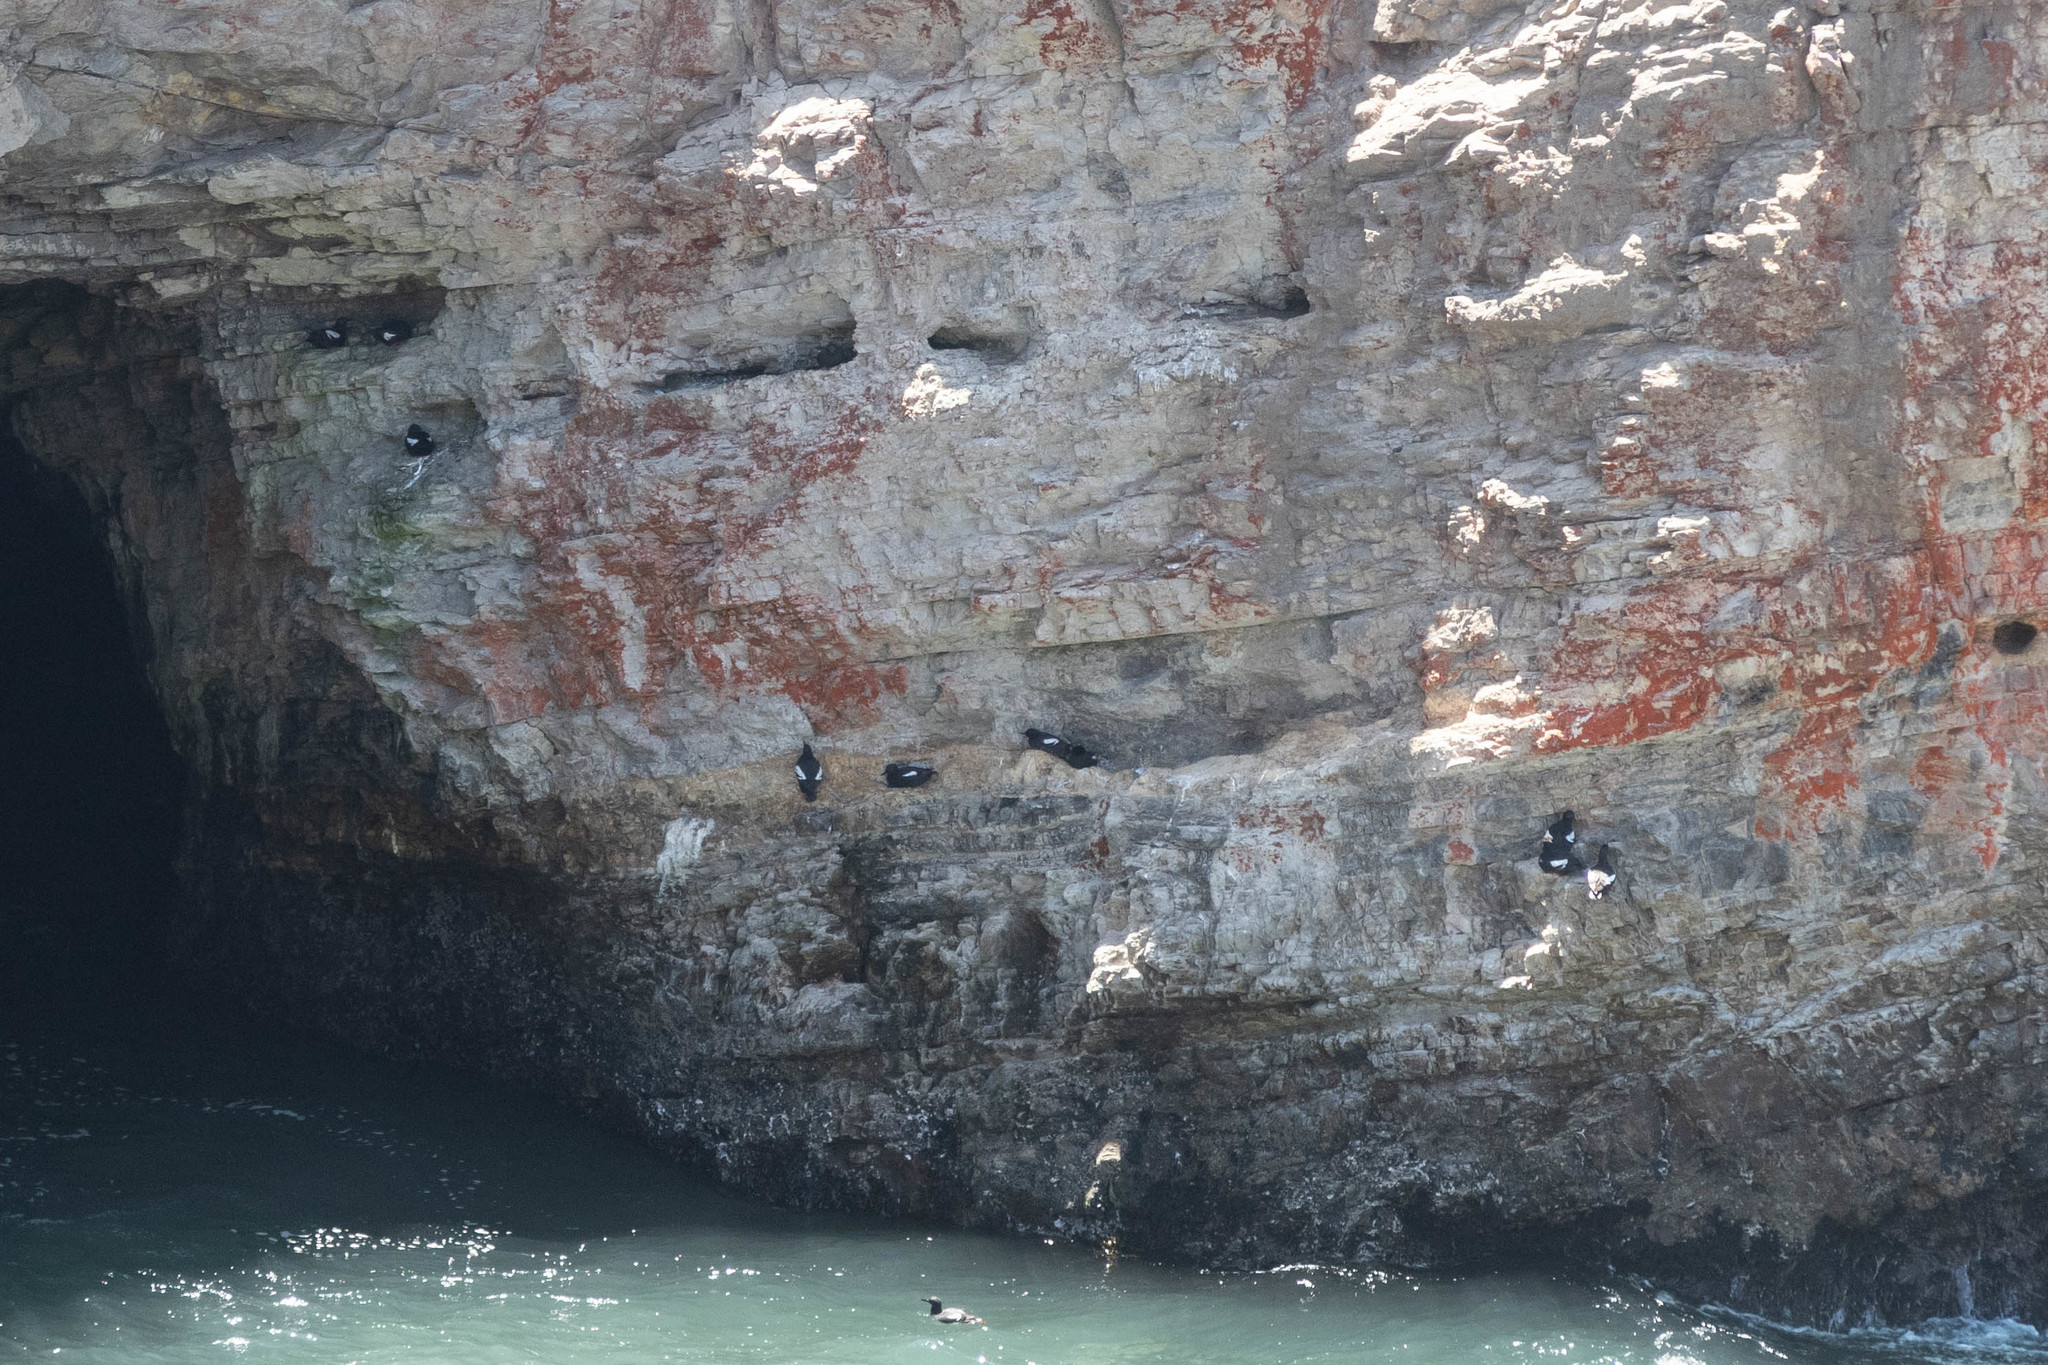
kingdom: Animalia
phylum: Chordata
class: Aves
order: Charadriiformes
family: Alcidae
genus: Cepphus
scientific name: Cepphus columba
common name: Pigeon guillemot
